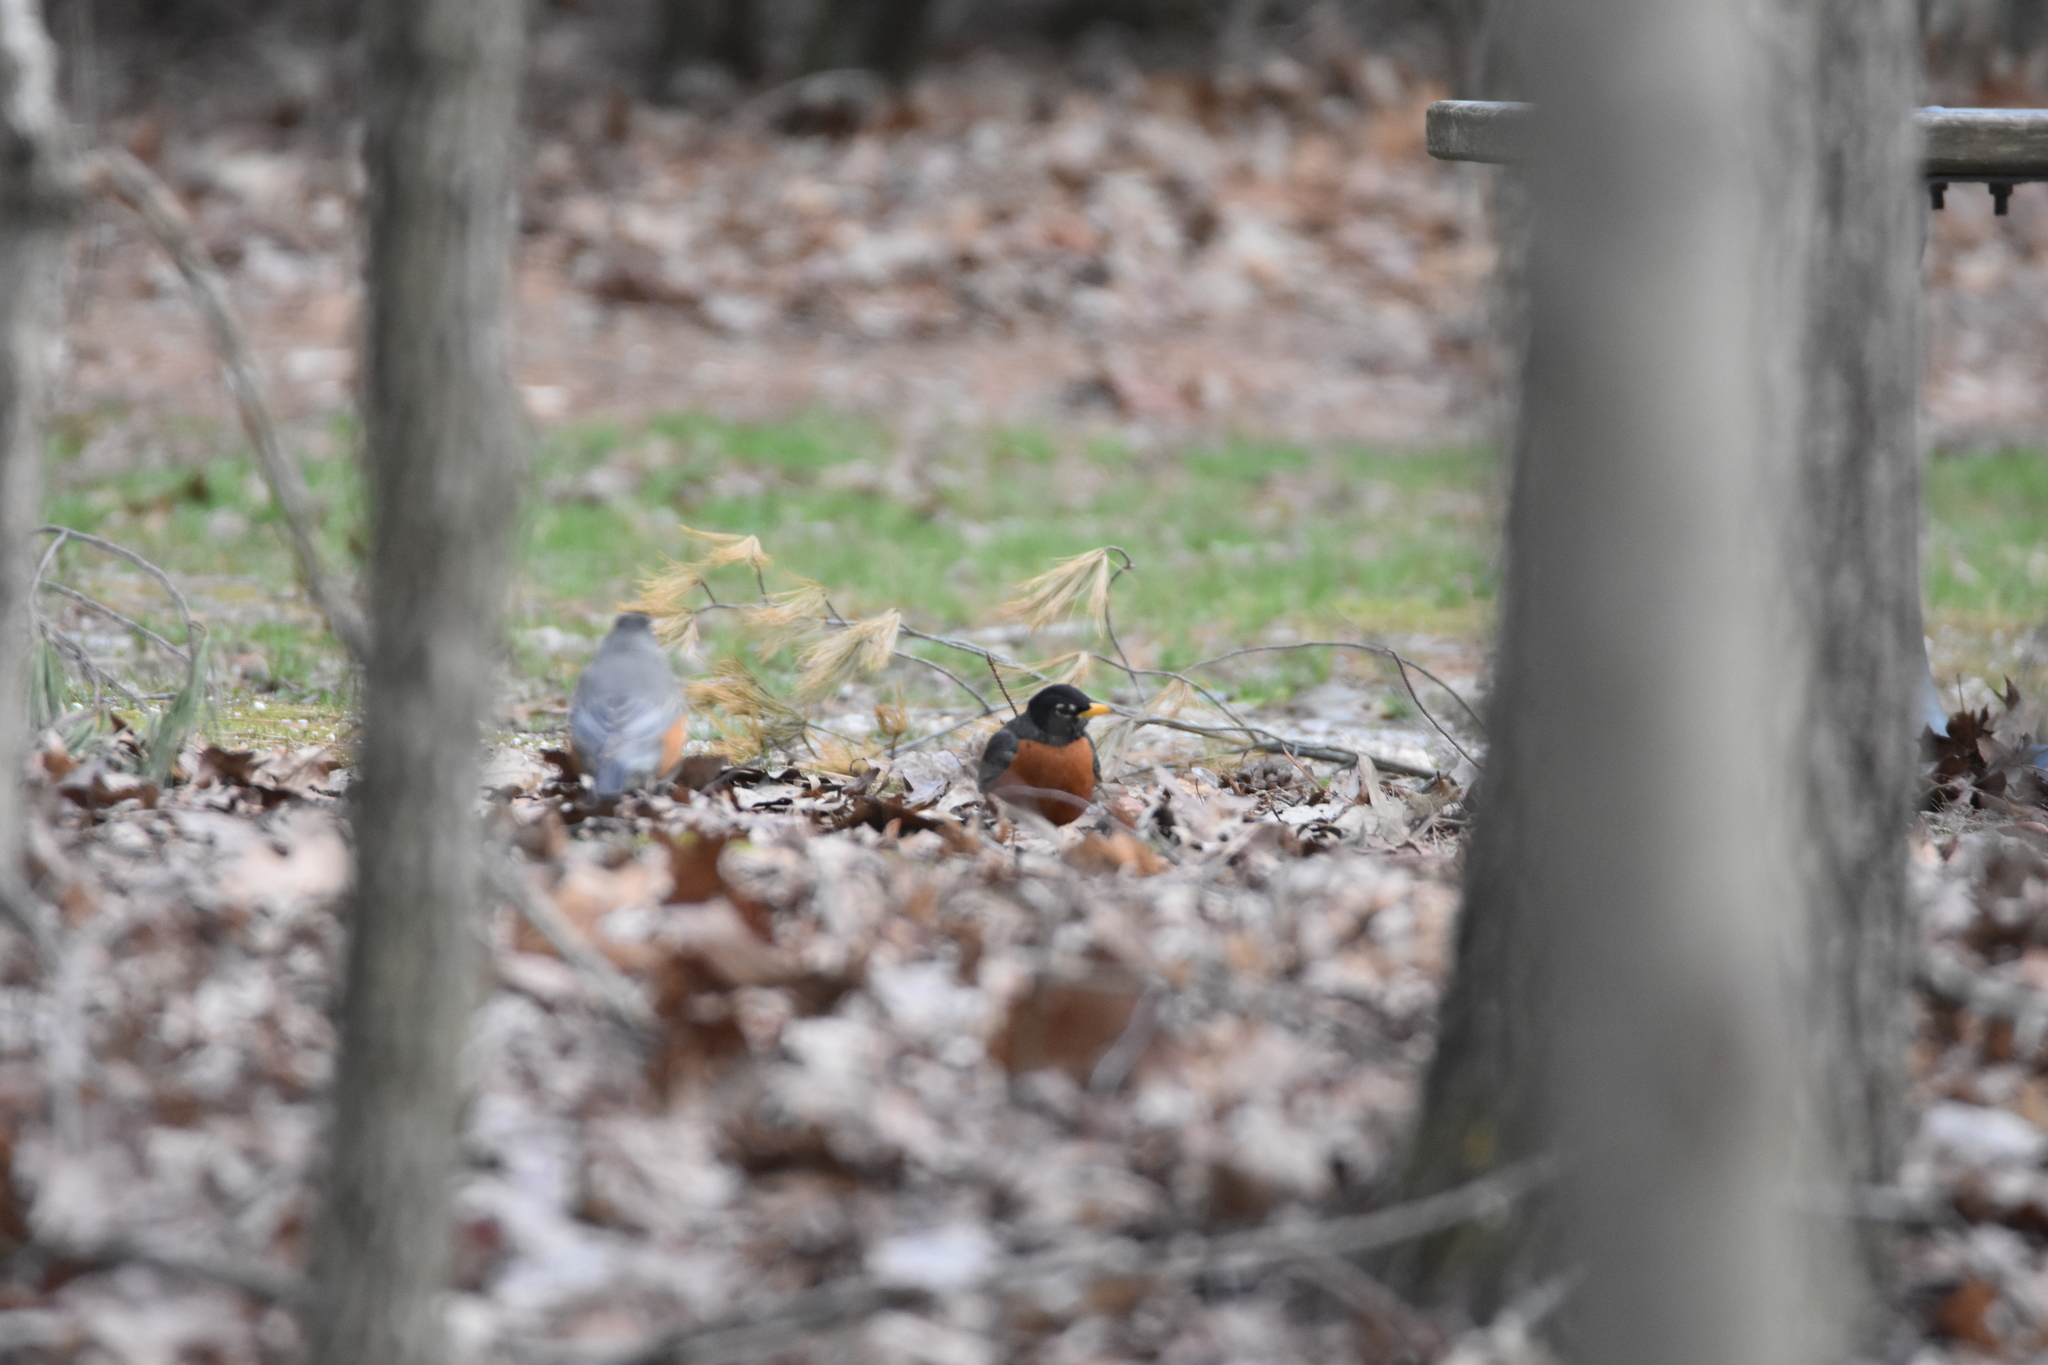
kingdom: Animalia
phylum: Chordata
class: Aves
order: Passeriformes
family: Turdidae
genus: Turdus
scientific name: Turdus migratorius
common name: American robin
